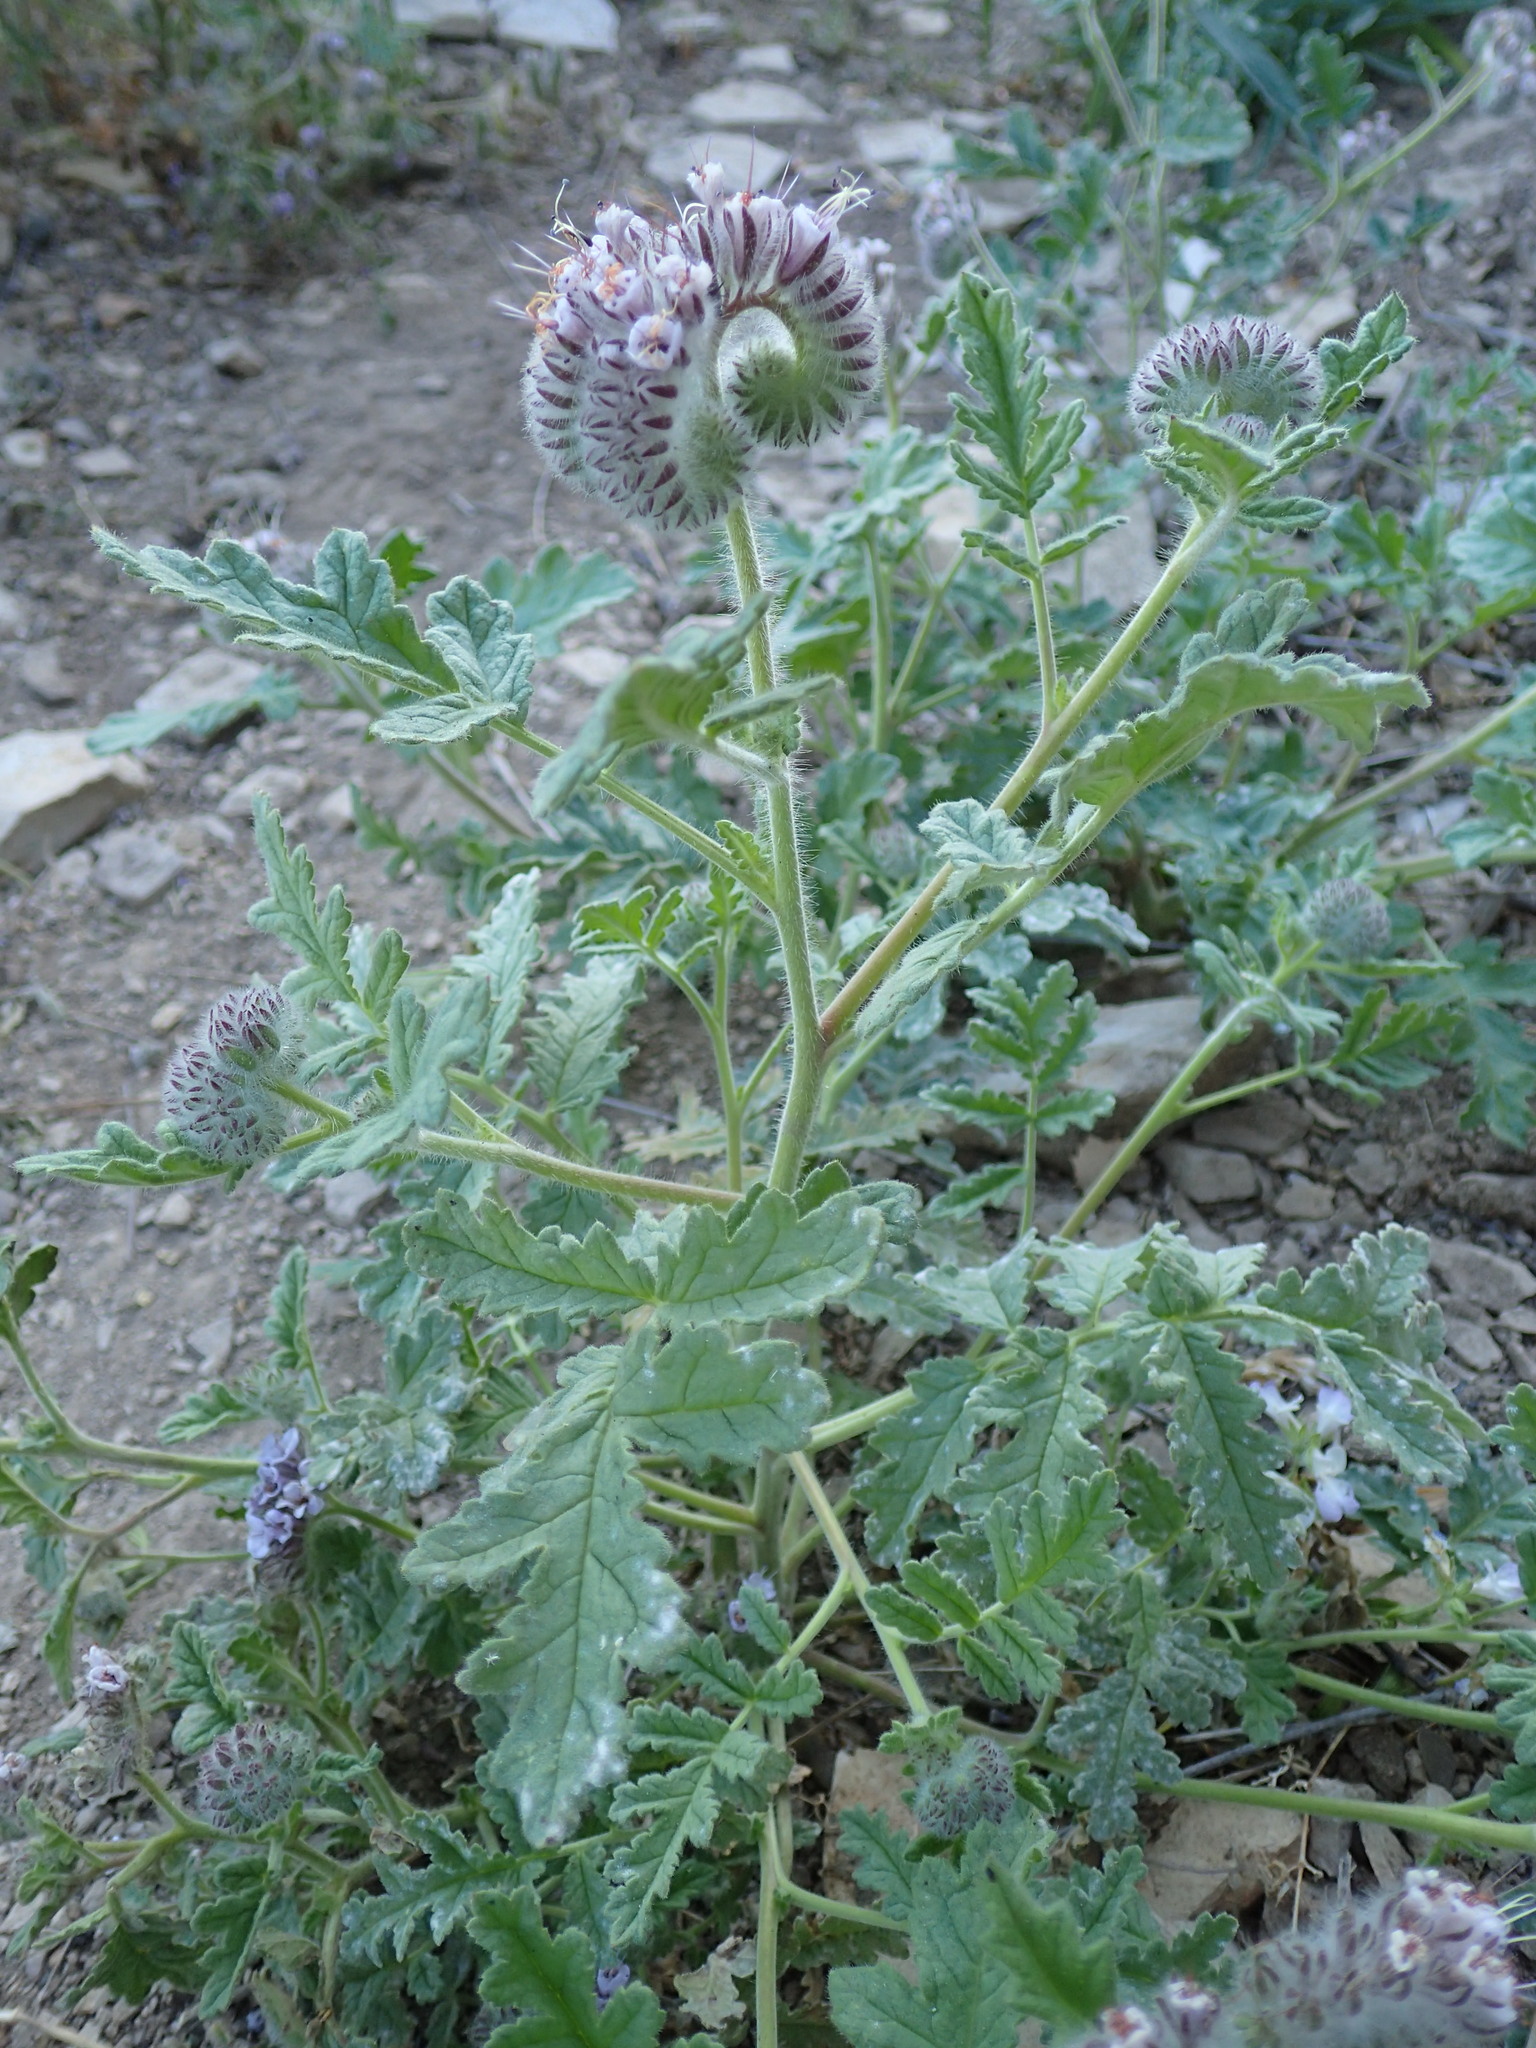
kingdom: Plantae
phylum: Tracheophyta
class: Magnoliopsida
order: Boraginales
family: Hydrophyllaceae
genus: Phacelia
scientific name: Phacelia hubbyi
